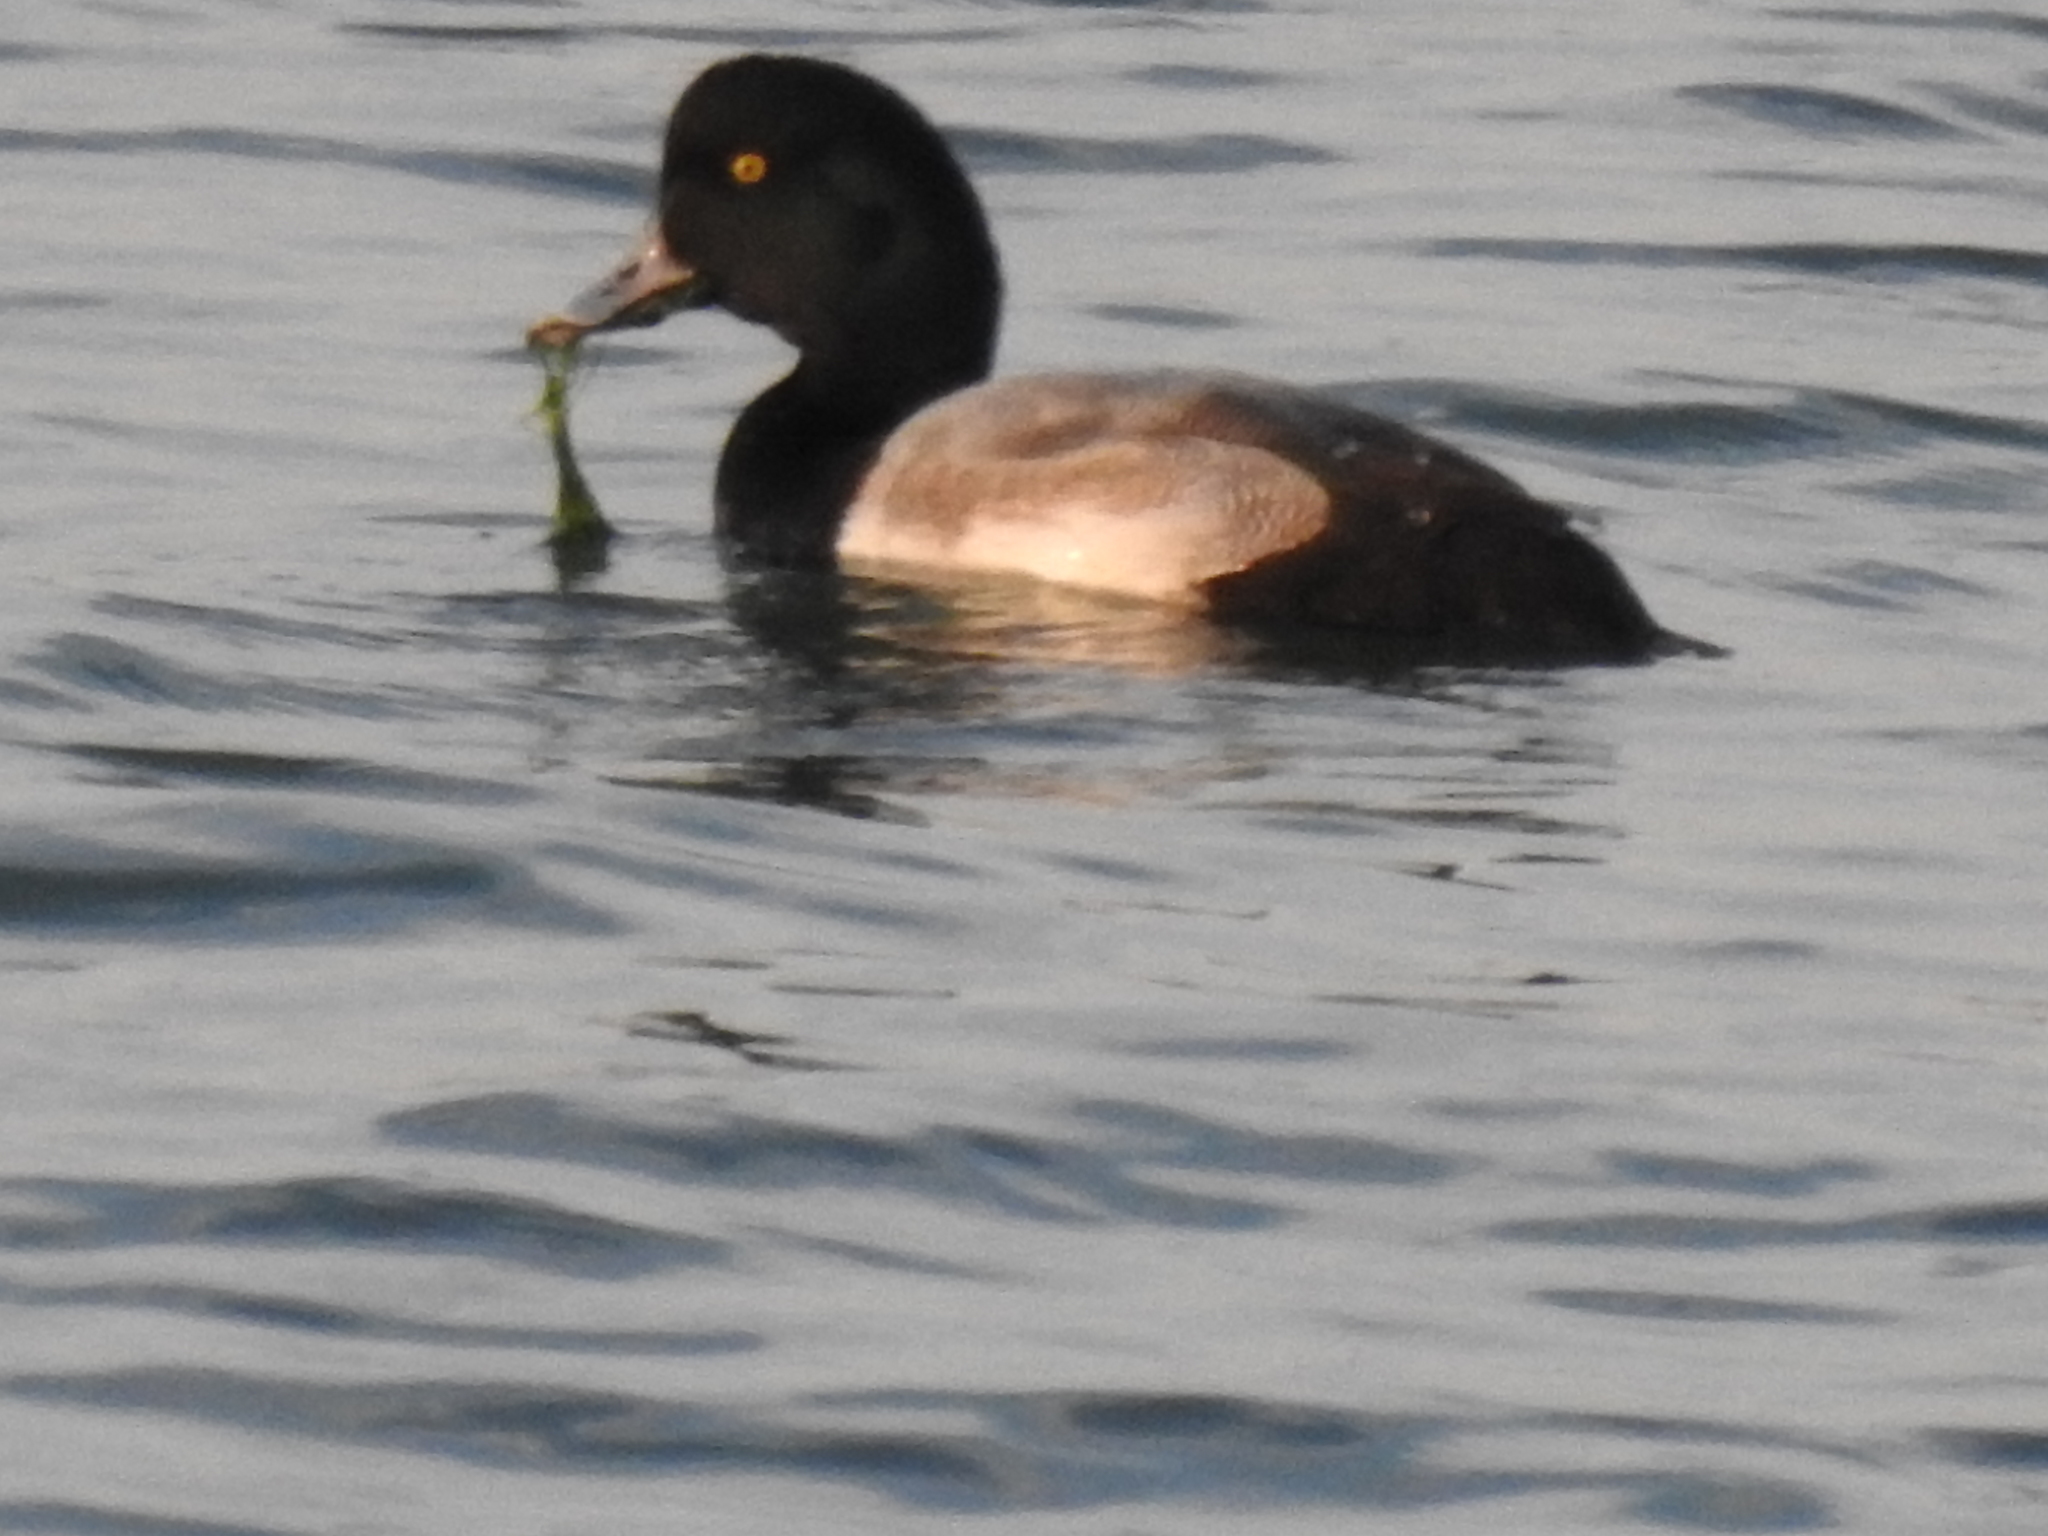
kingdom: Animalia
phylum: Chordata
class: Aves
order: Anseriformes
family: Anatidae
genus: Aythya
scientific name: Aythya marila
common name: Greater scaup
